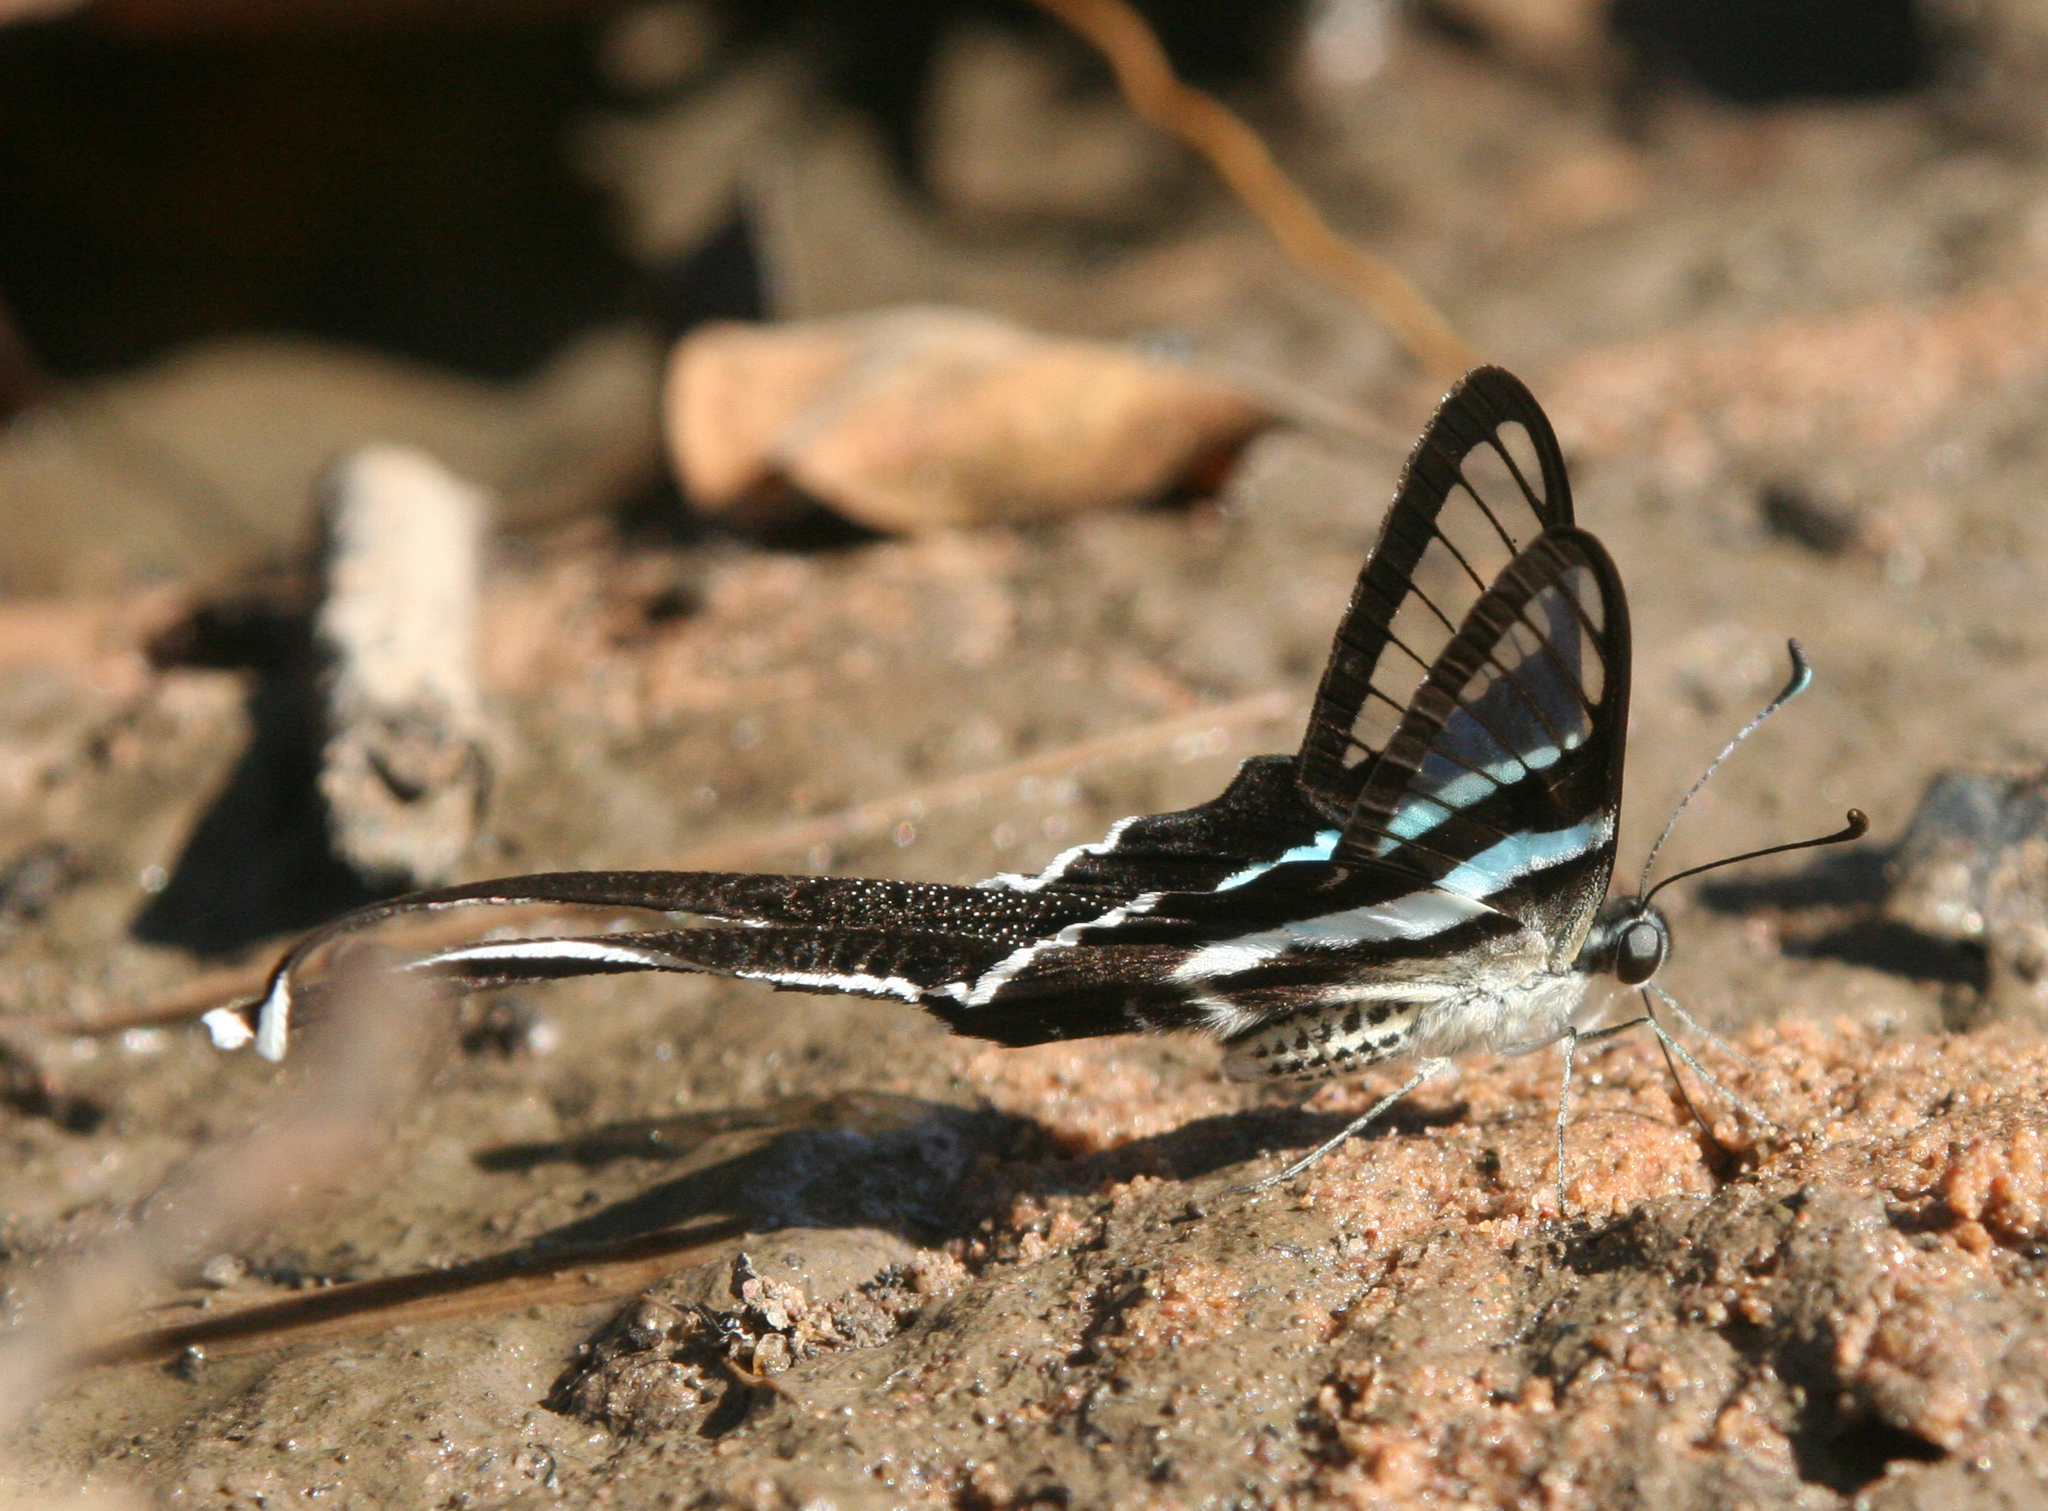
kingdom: Animalia
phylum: Arthropoda
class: Insecta
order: Lepidoptera
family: Papilionidae
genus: Lamproptera
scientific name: Lamproptera meges
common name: Green dragontail
